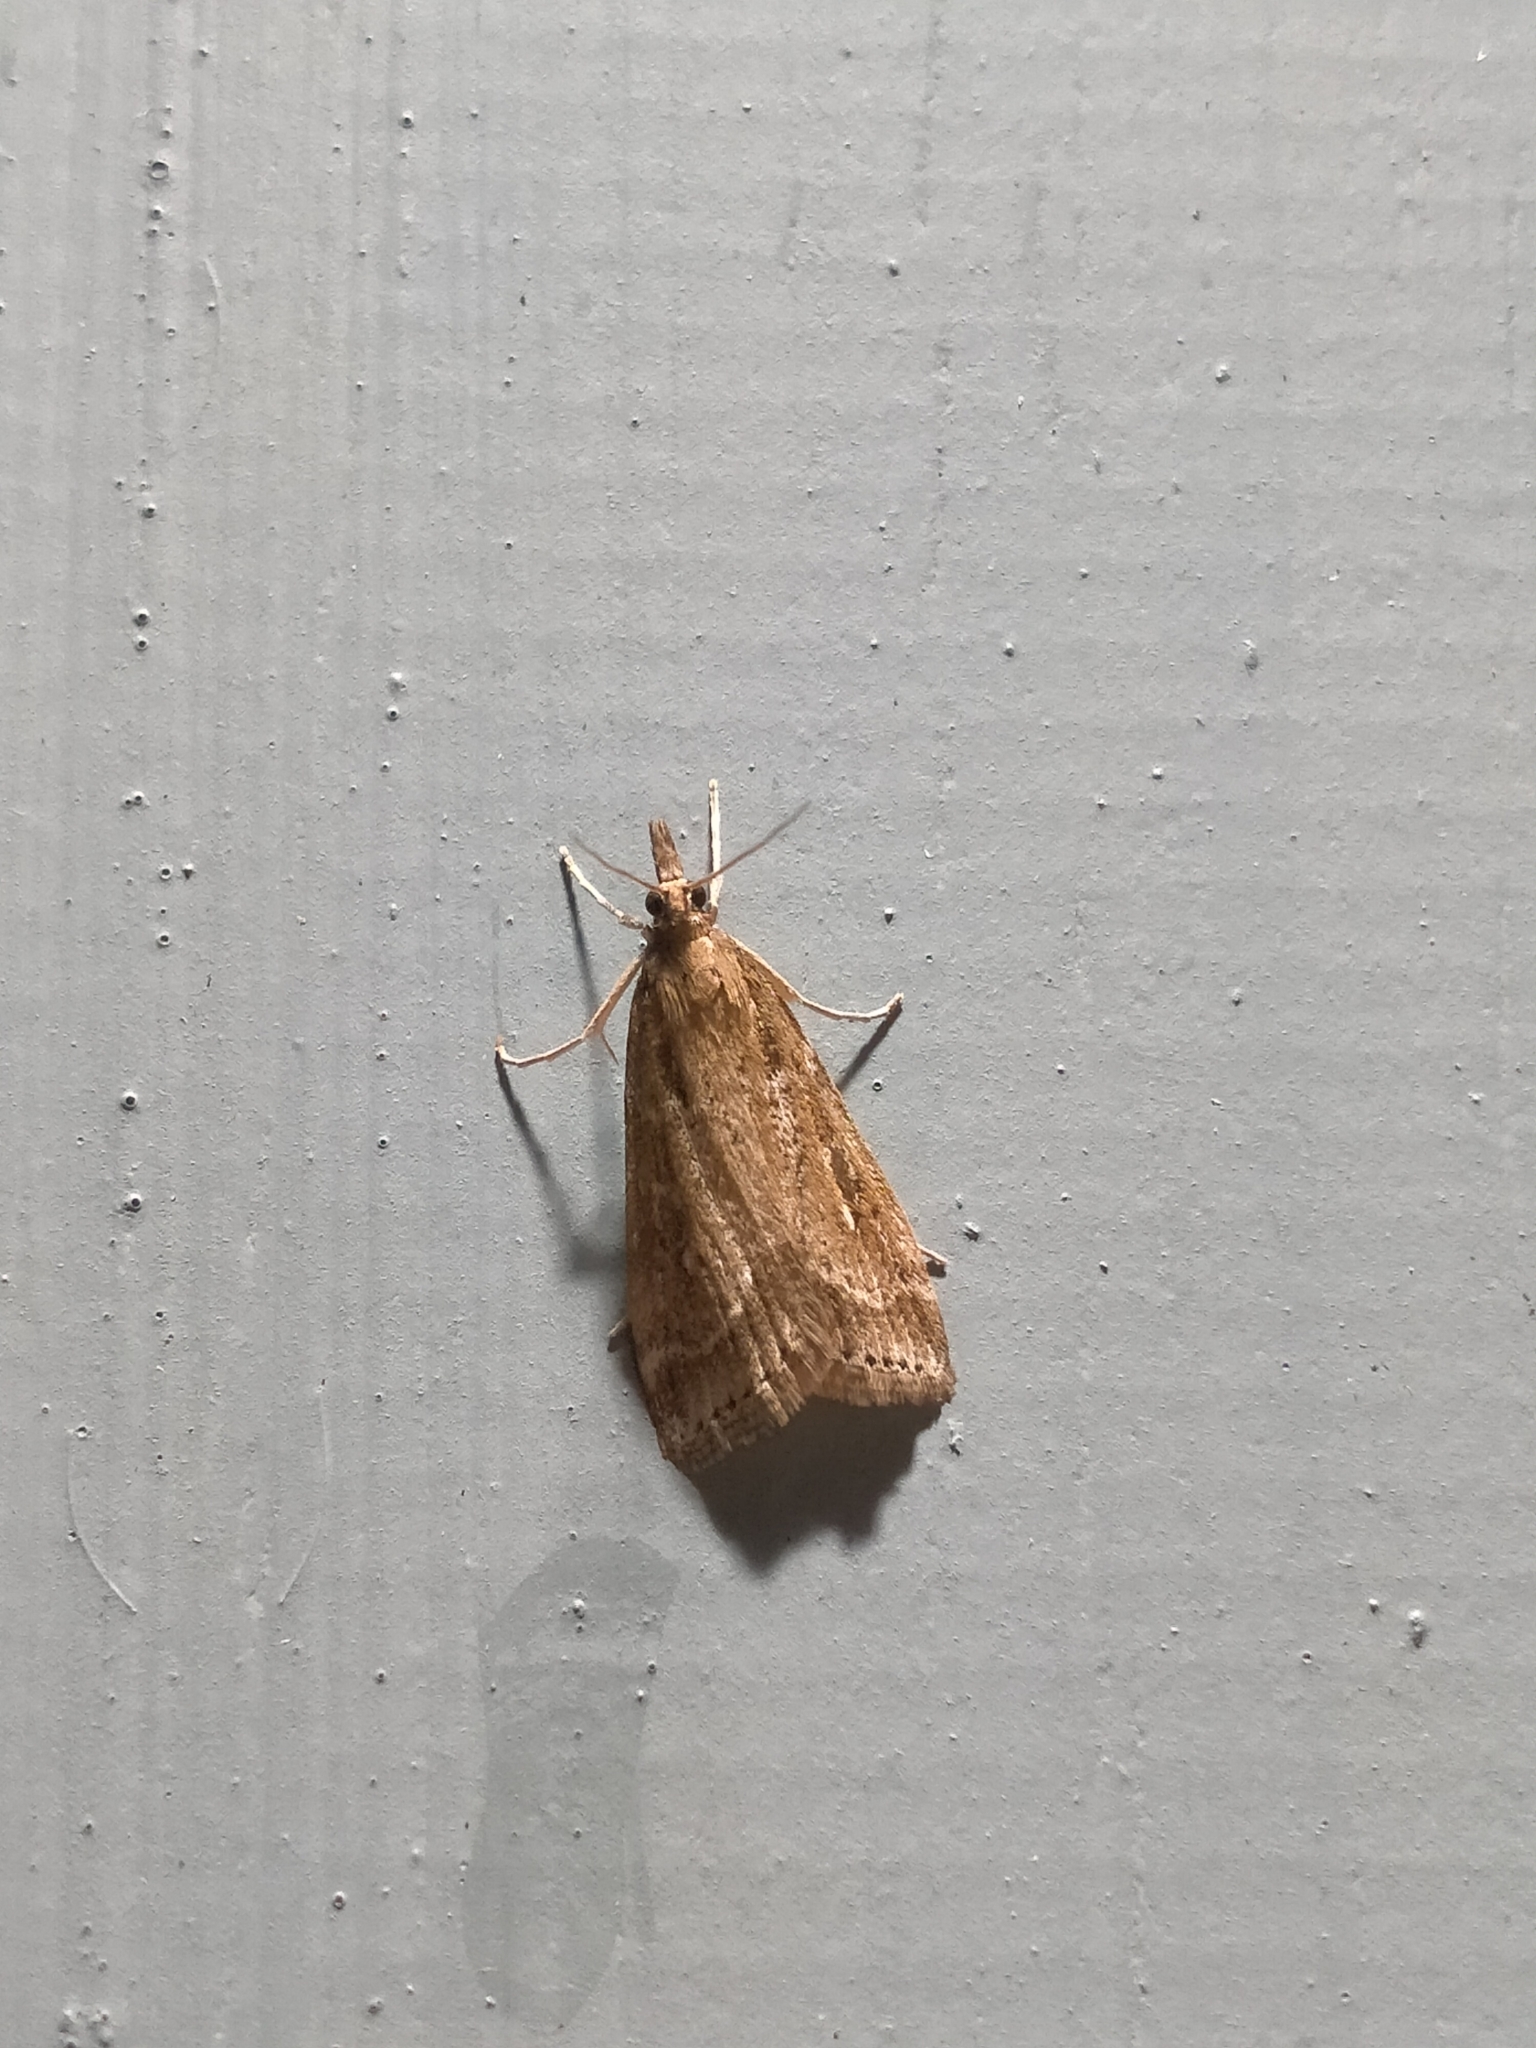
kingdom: Animalia
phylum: Arthropoda
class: Insecta
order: Lepidoptera
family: Crambidae
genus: Eudonia
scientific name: Eudonia octophora
